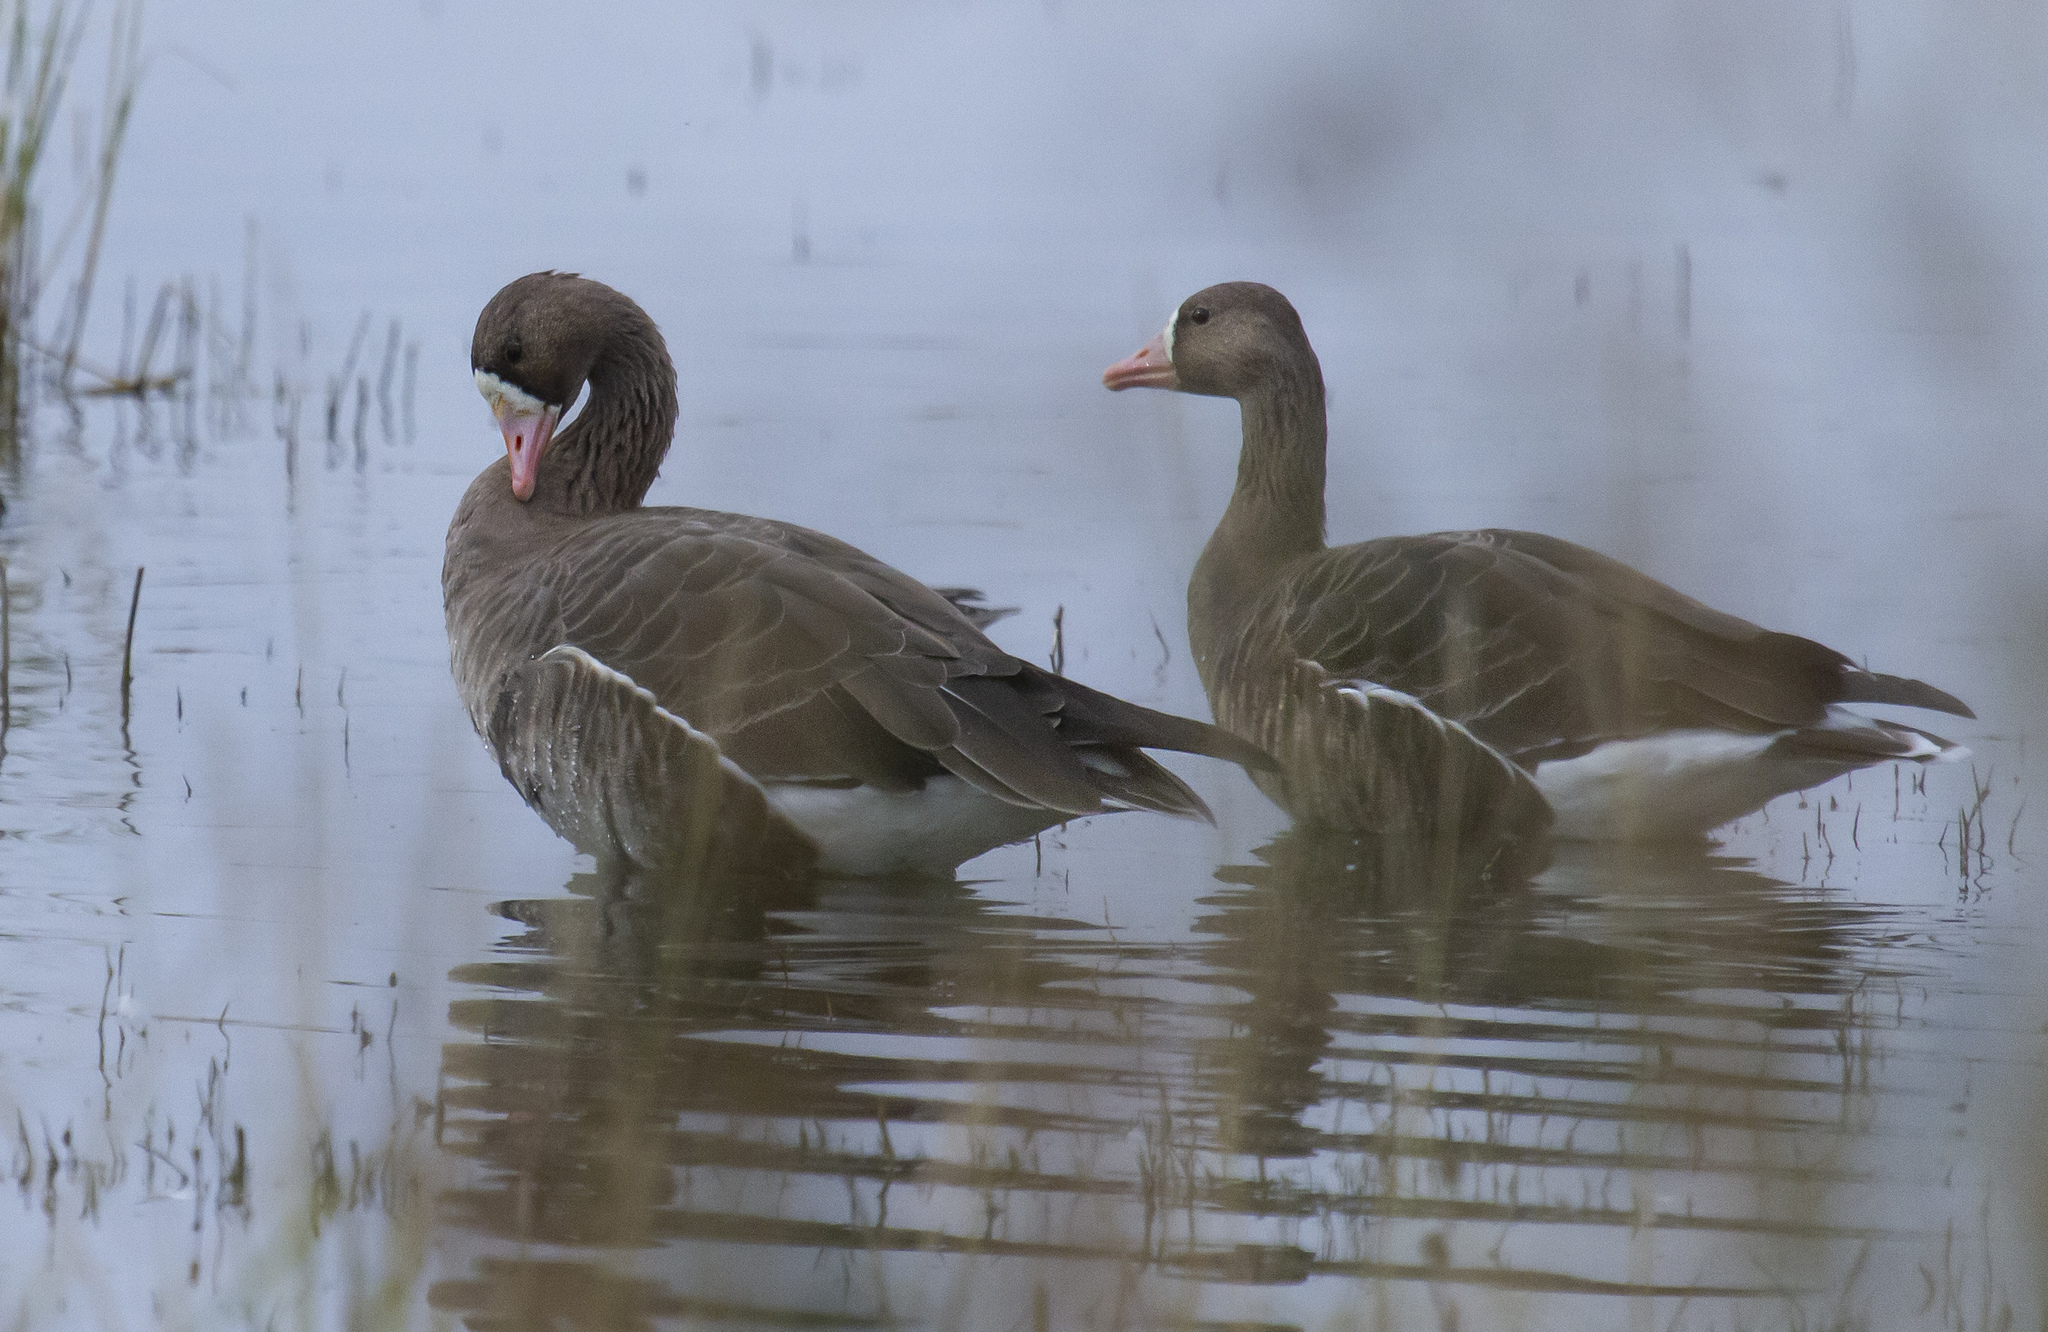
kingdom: Animalia
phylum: Chordata
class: Aves
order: Anseriformes
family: Anatidae
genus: Anser
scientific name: Anser albifrons
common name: Greater white-fronted goose
